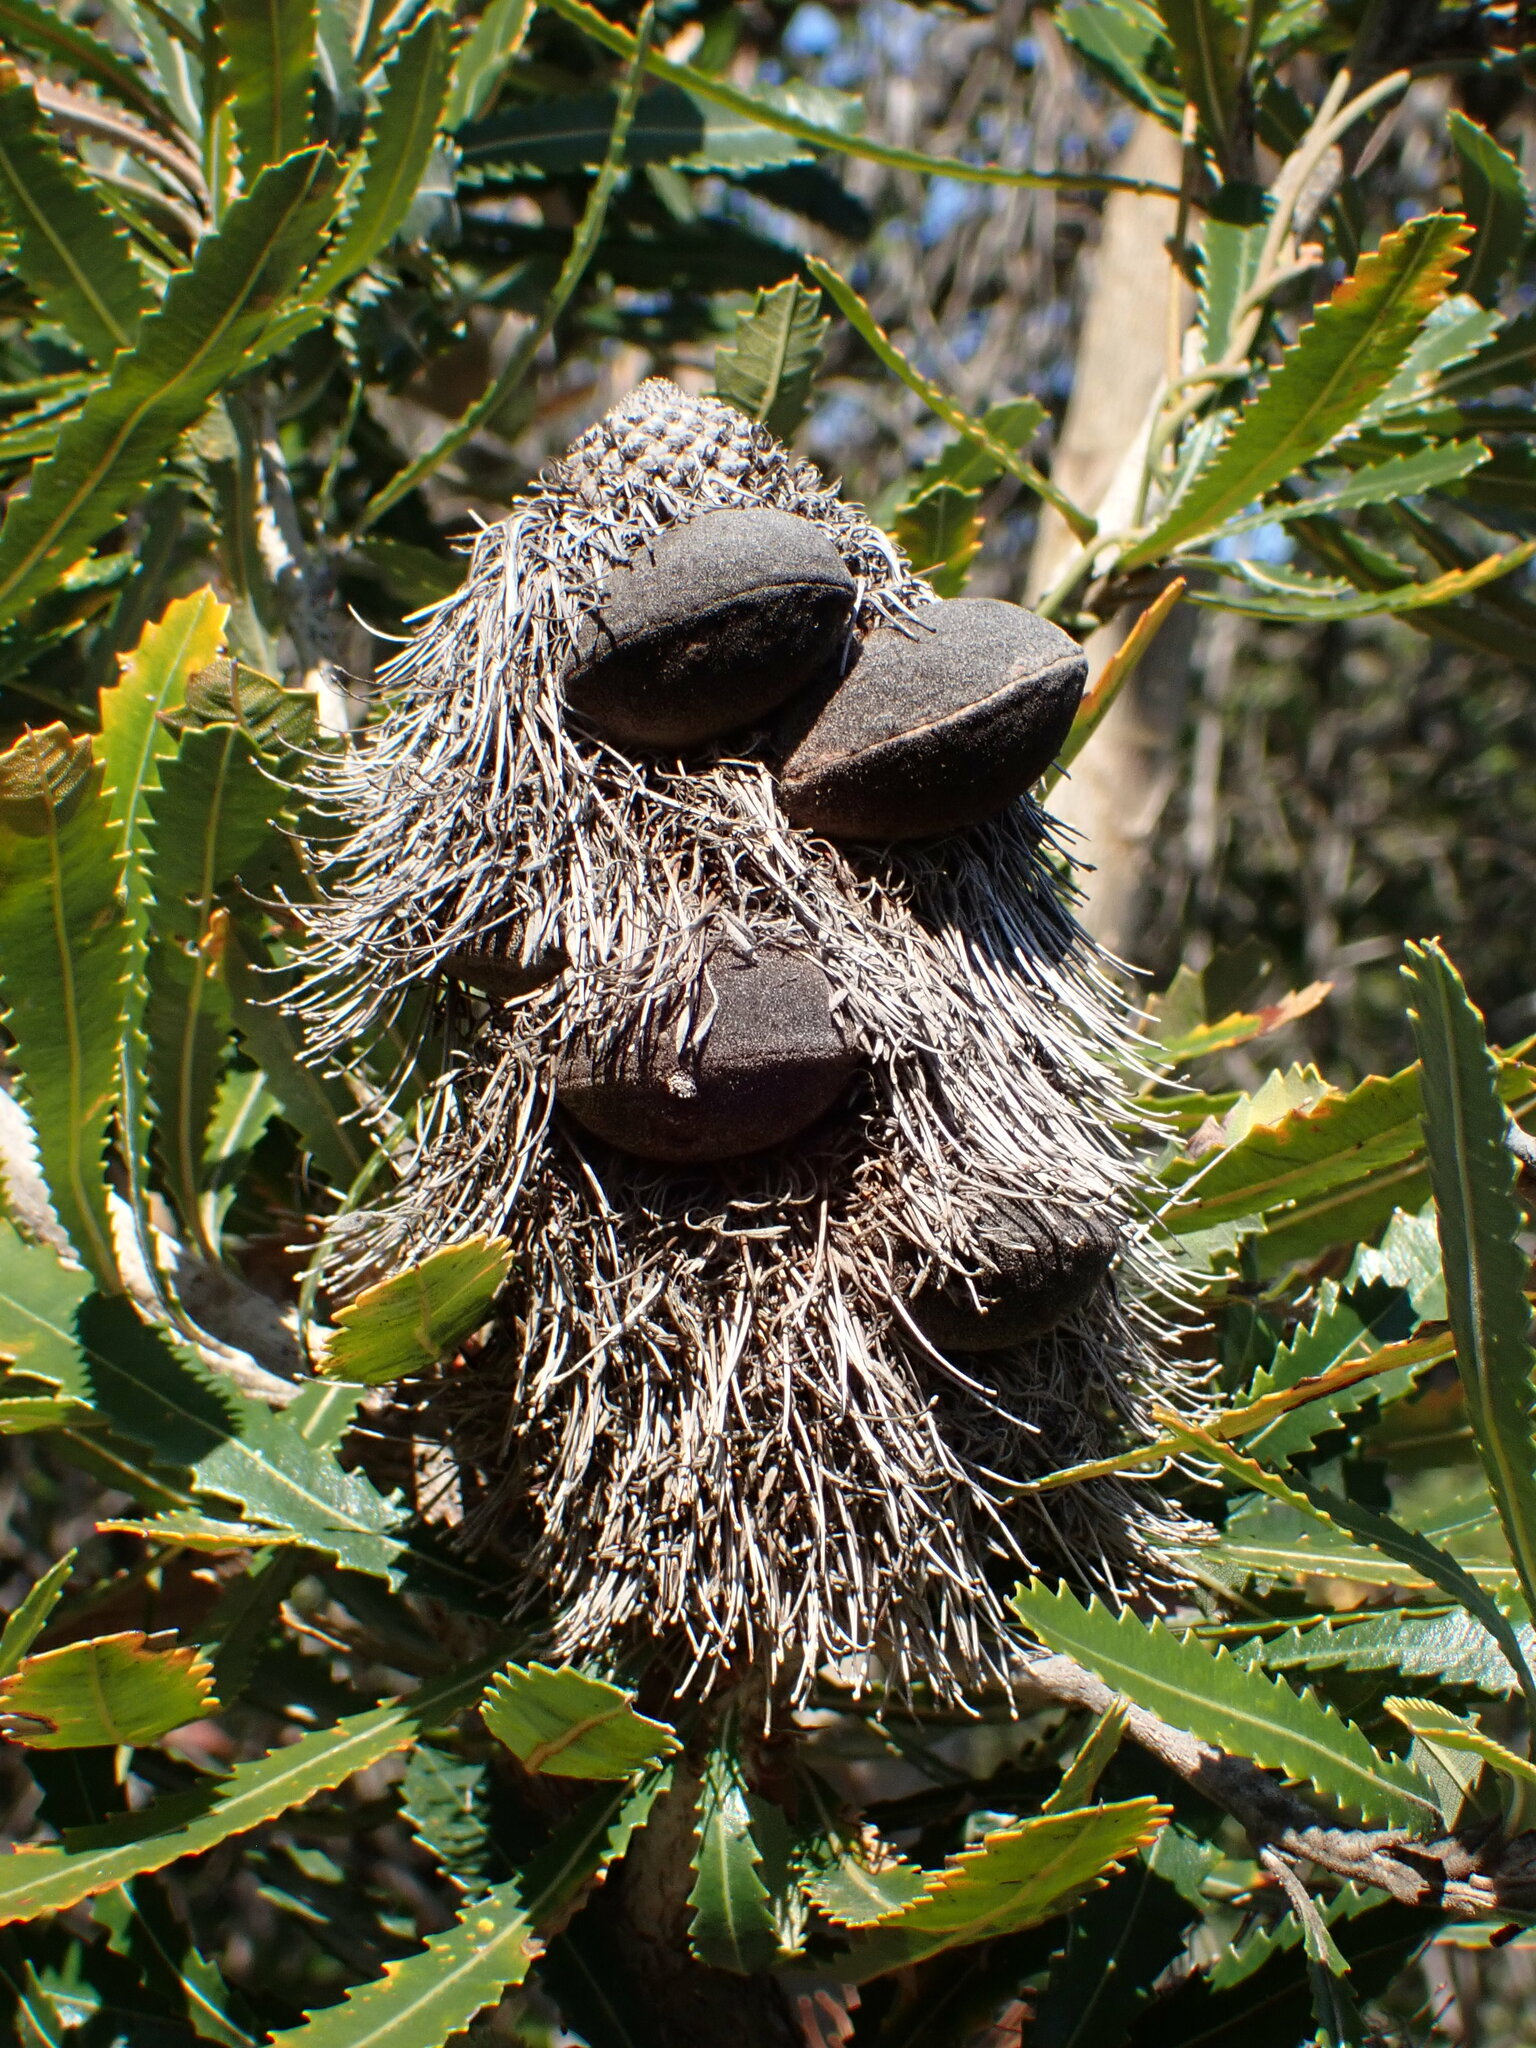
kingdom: Plantae
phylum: Tracheophyta
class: Magnoliopsida
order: Proteales
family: Proteaceae
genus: Banksia
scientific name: Banksia aemula
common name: Wallum banksia
